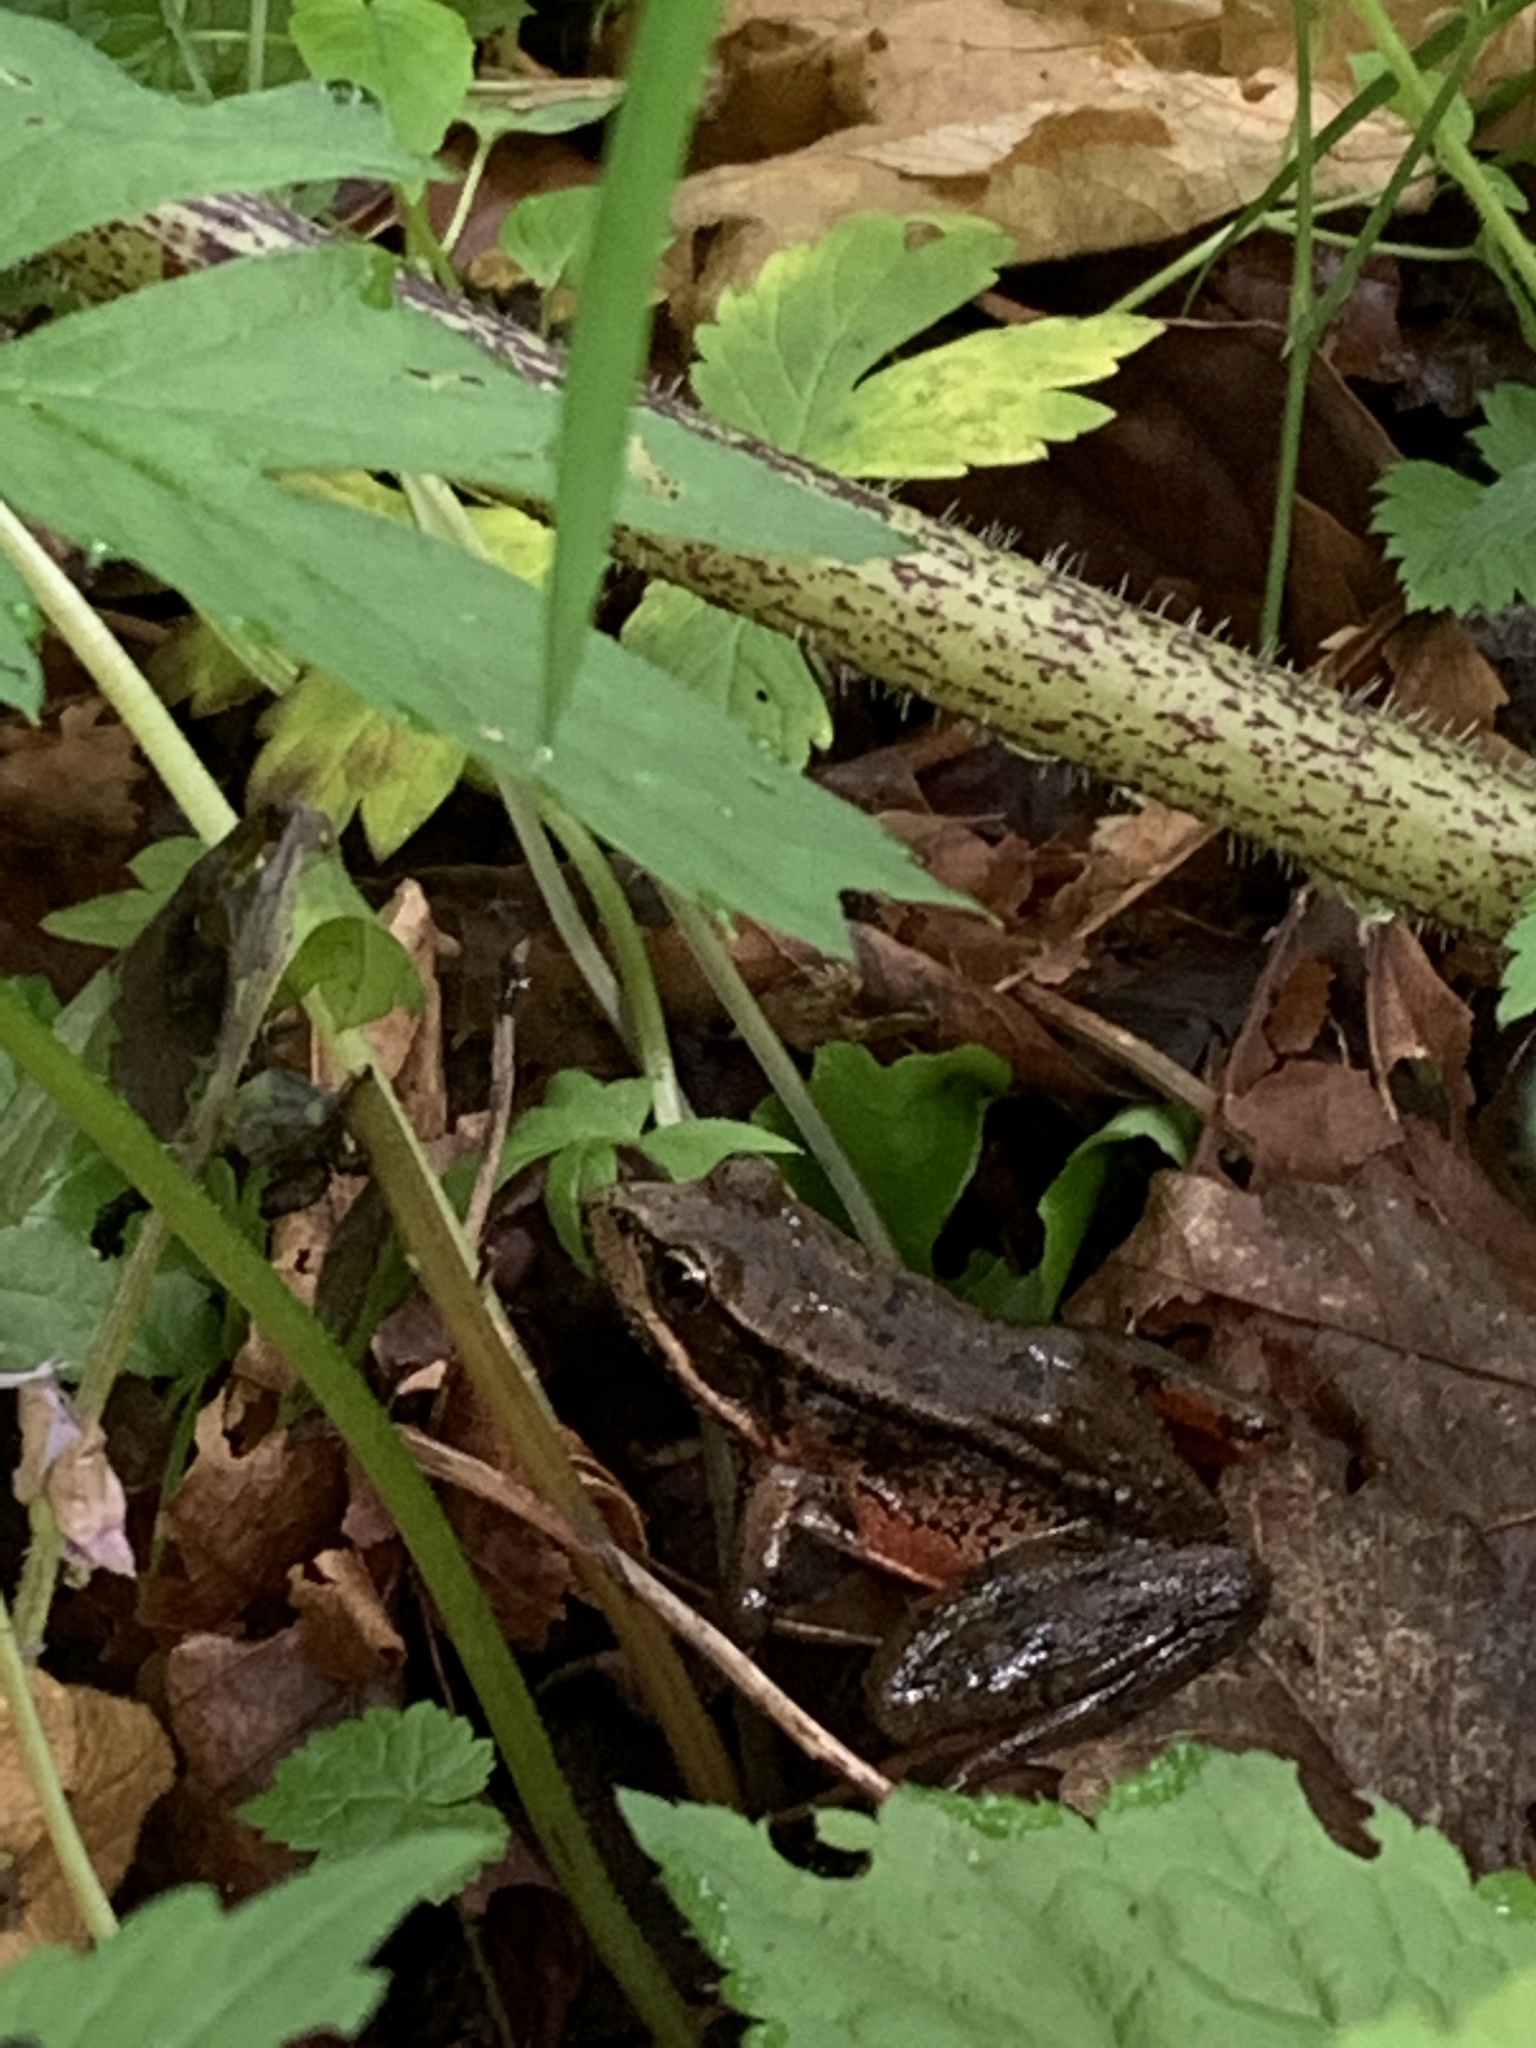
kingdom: Animalia
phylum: Chordata
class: Amphibia
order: Anura
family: Ranidae
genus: Rana
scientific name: Rana aurora
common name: Red-legged frog
